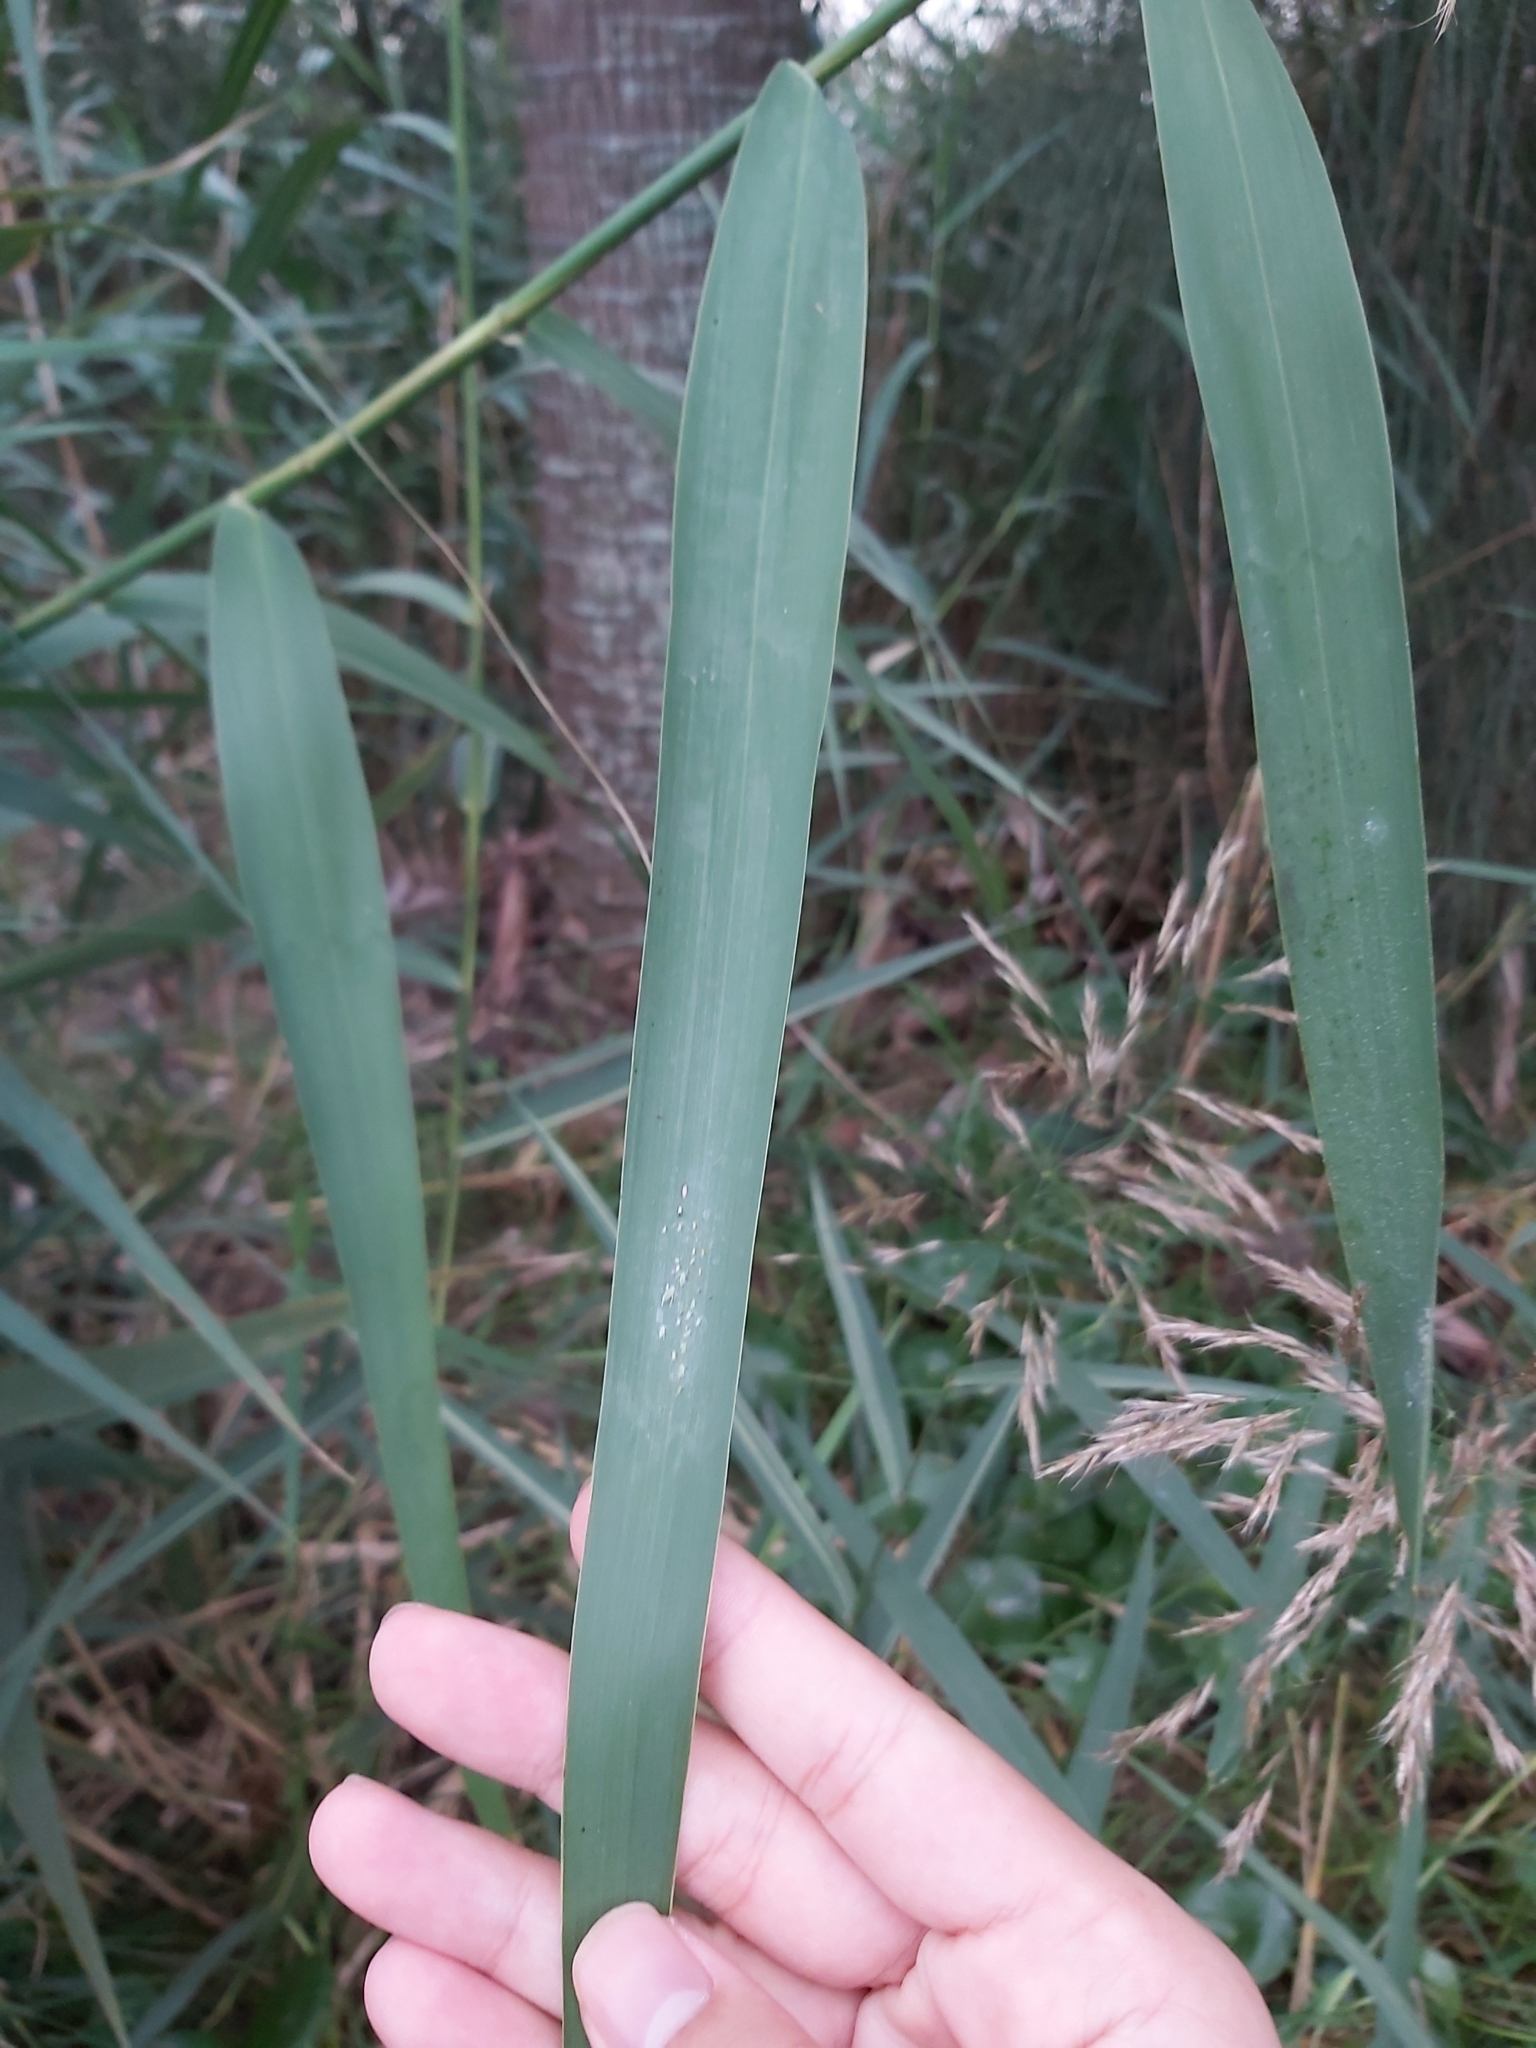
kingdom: Plantae
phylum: Tracheophyta
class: Liliopsida
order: Poales
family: Poaceae
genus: Phragmites
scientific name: Phragmites australis
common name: Common reed
